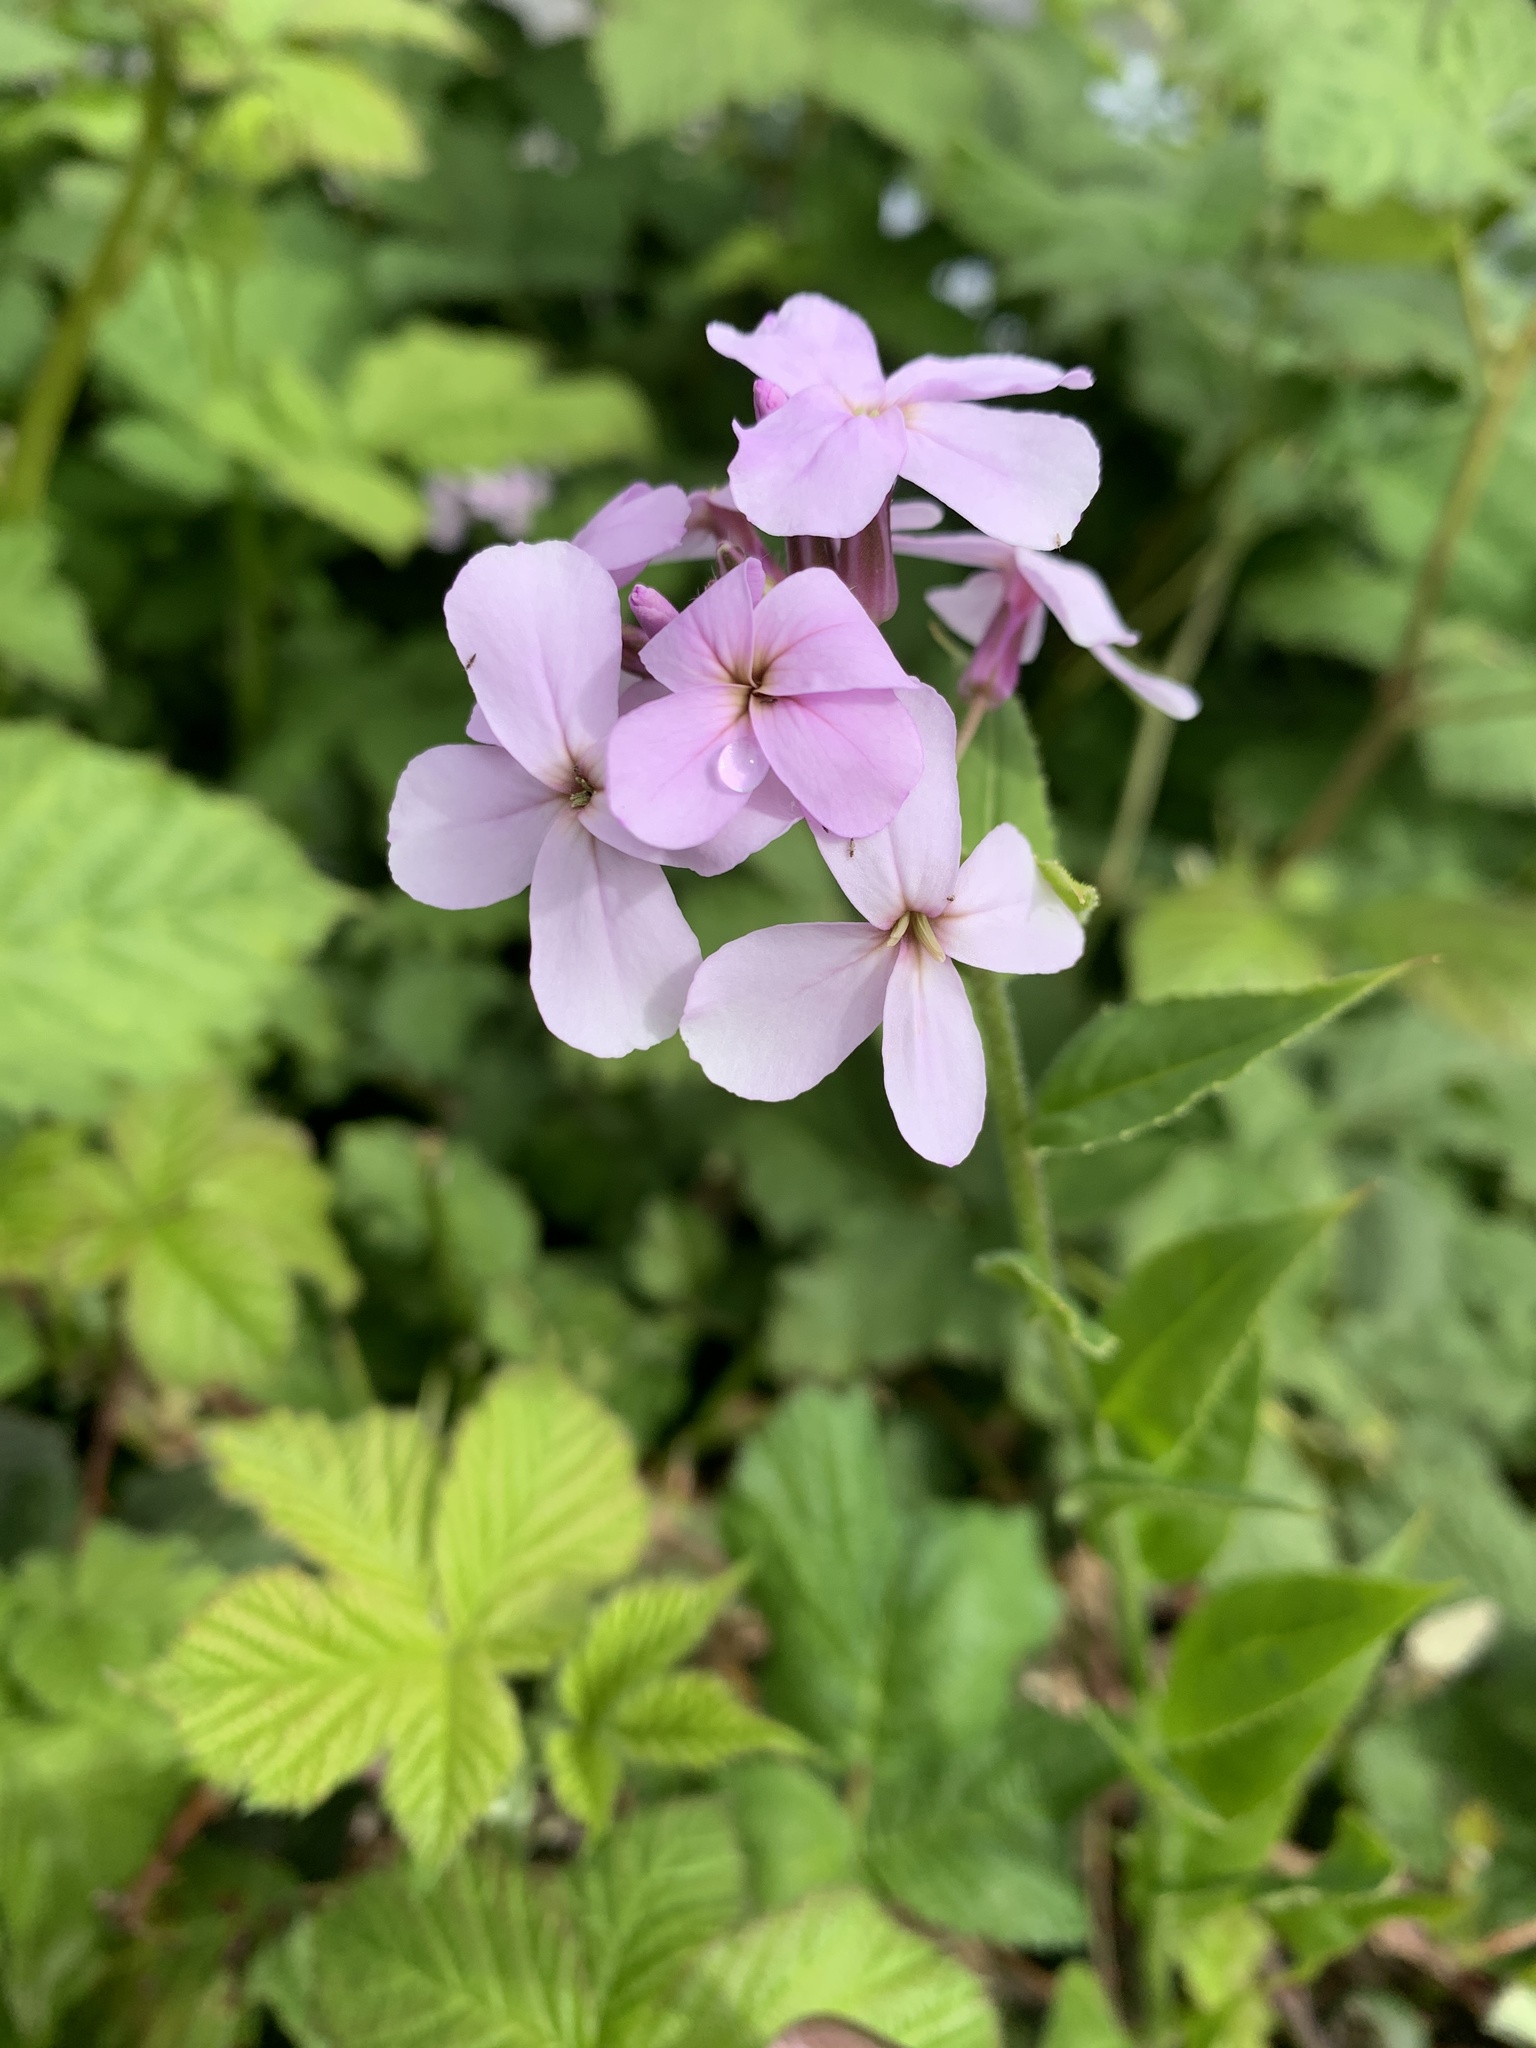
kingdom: Plantae
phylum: Tracheophyta
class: Magnoliopsida
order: Brassicales
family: Brassicaceae
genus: Hesperis
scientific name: Hesperis matronalis
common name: Dame's-violet
